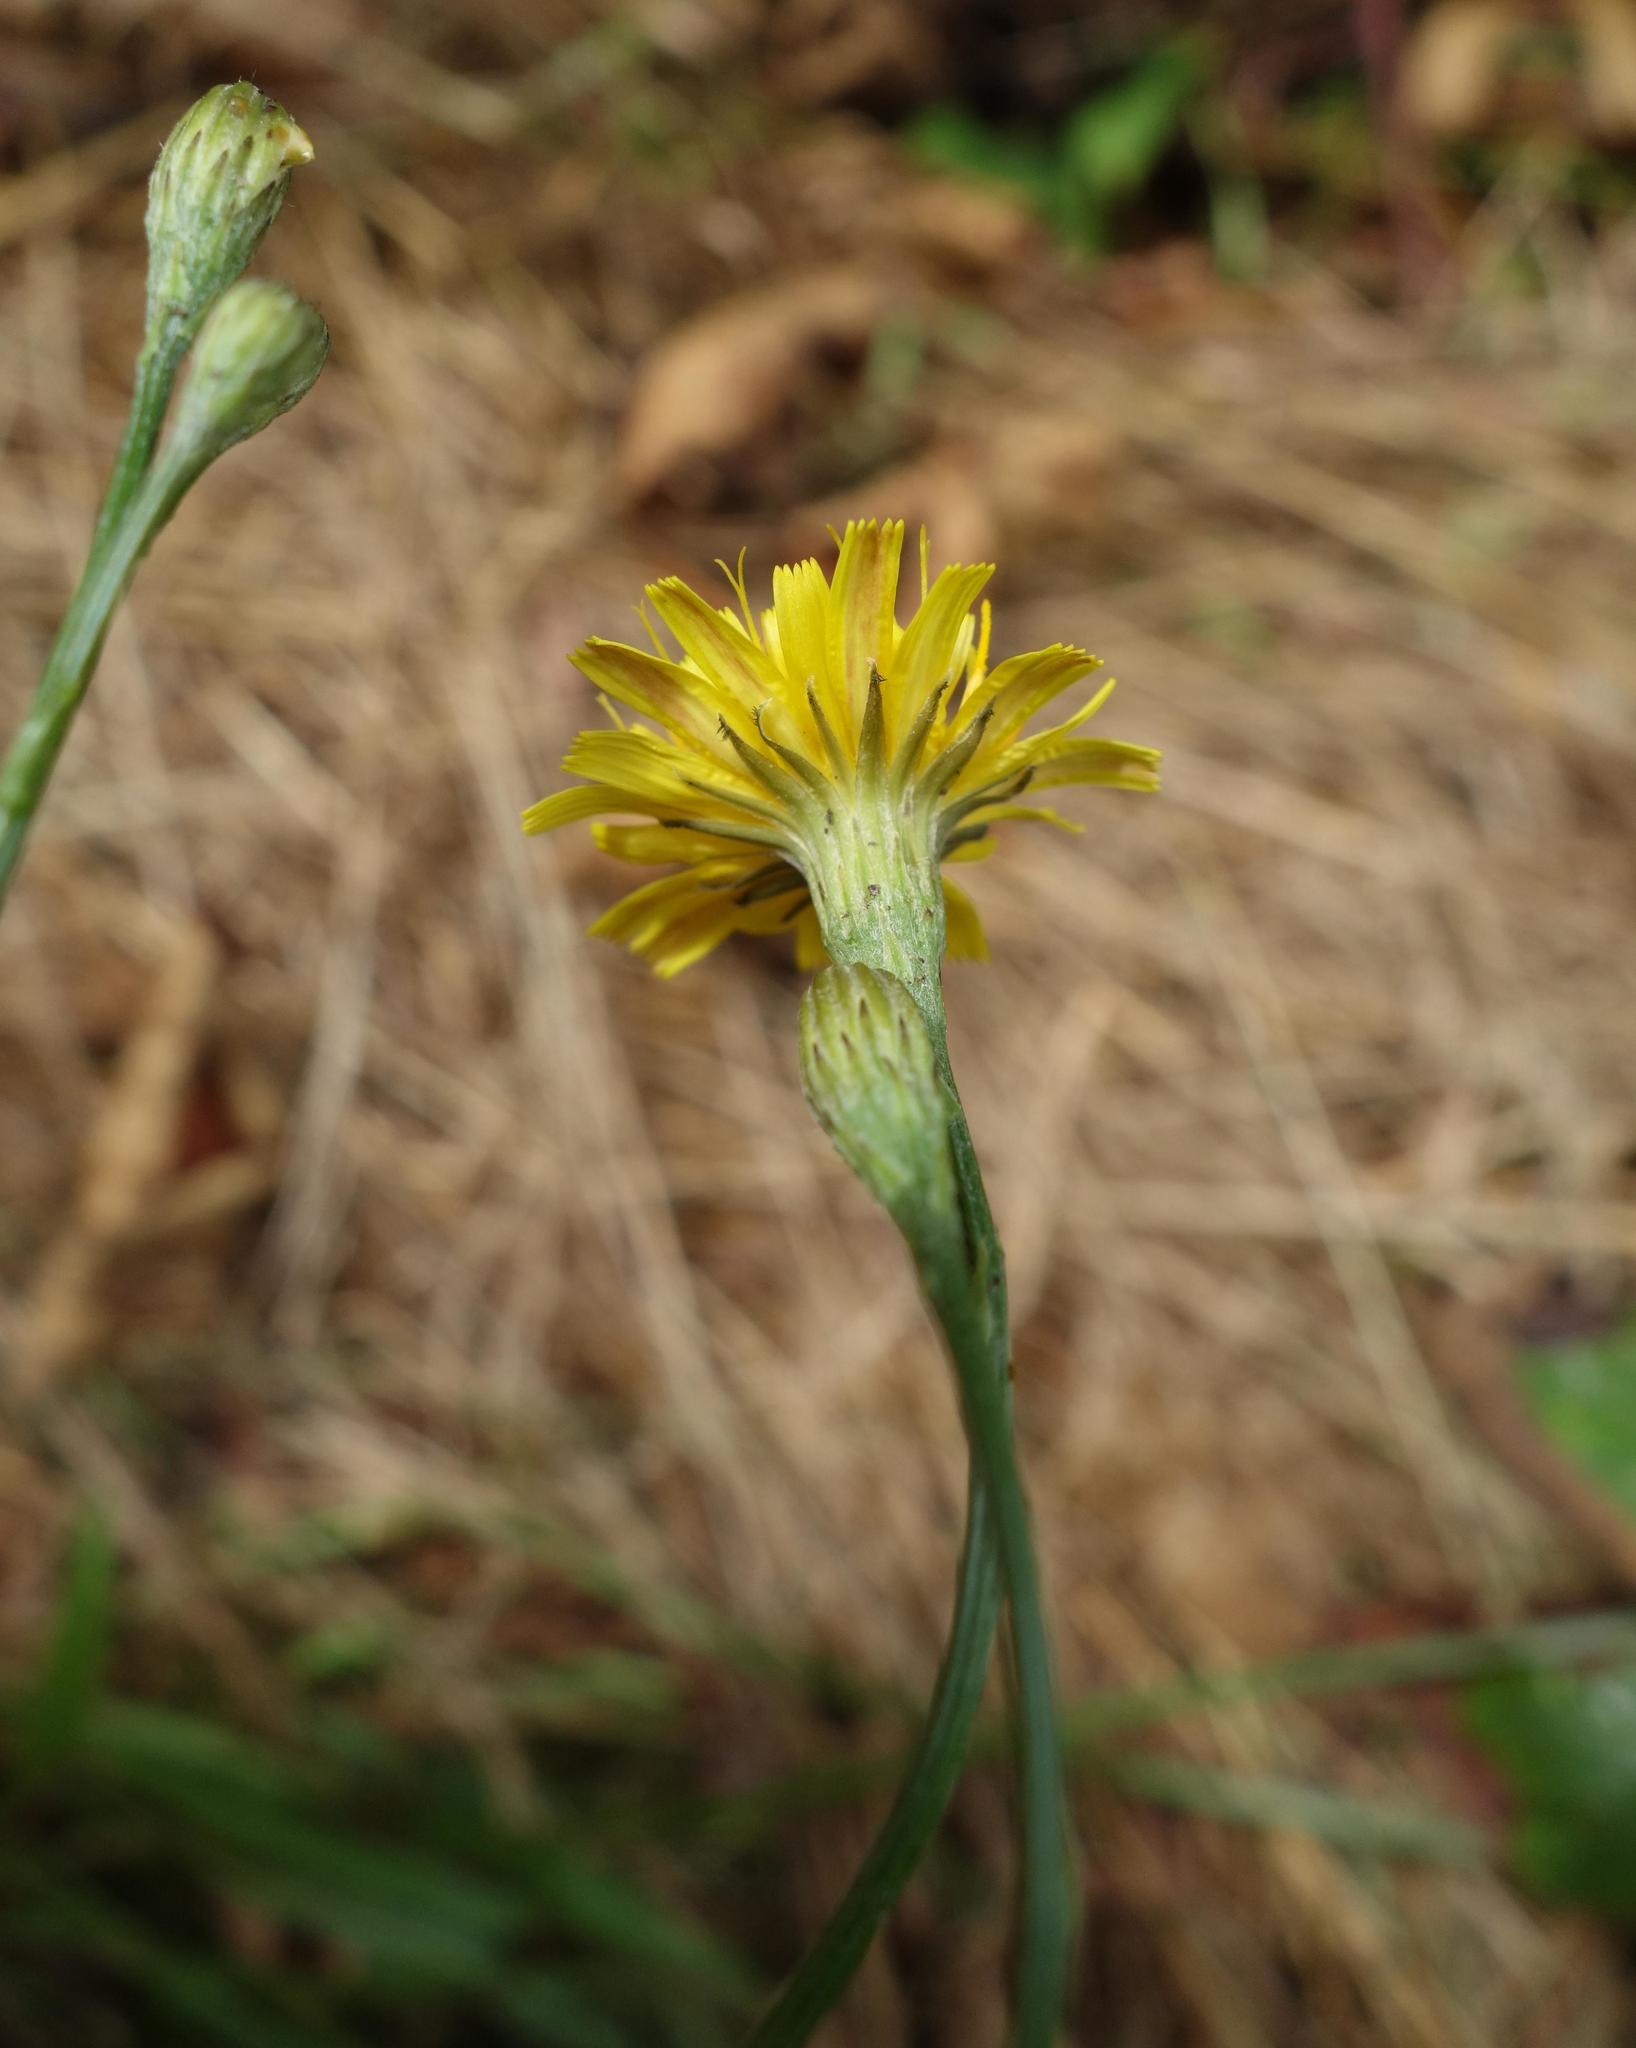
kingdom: Plantae
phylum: Tracheophyta
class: Magnoliopsida
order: Asterales
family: Asteraceae
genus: Scorzoneroides
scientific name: Scorzoneroides autumnalis
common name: Autumn hawkbit
